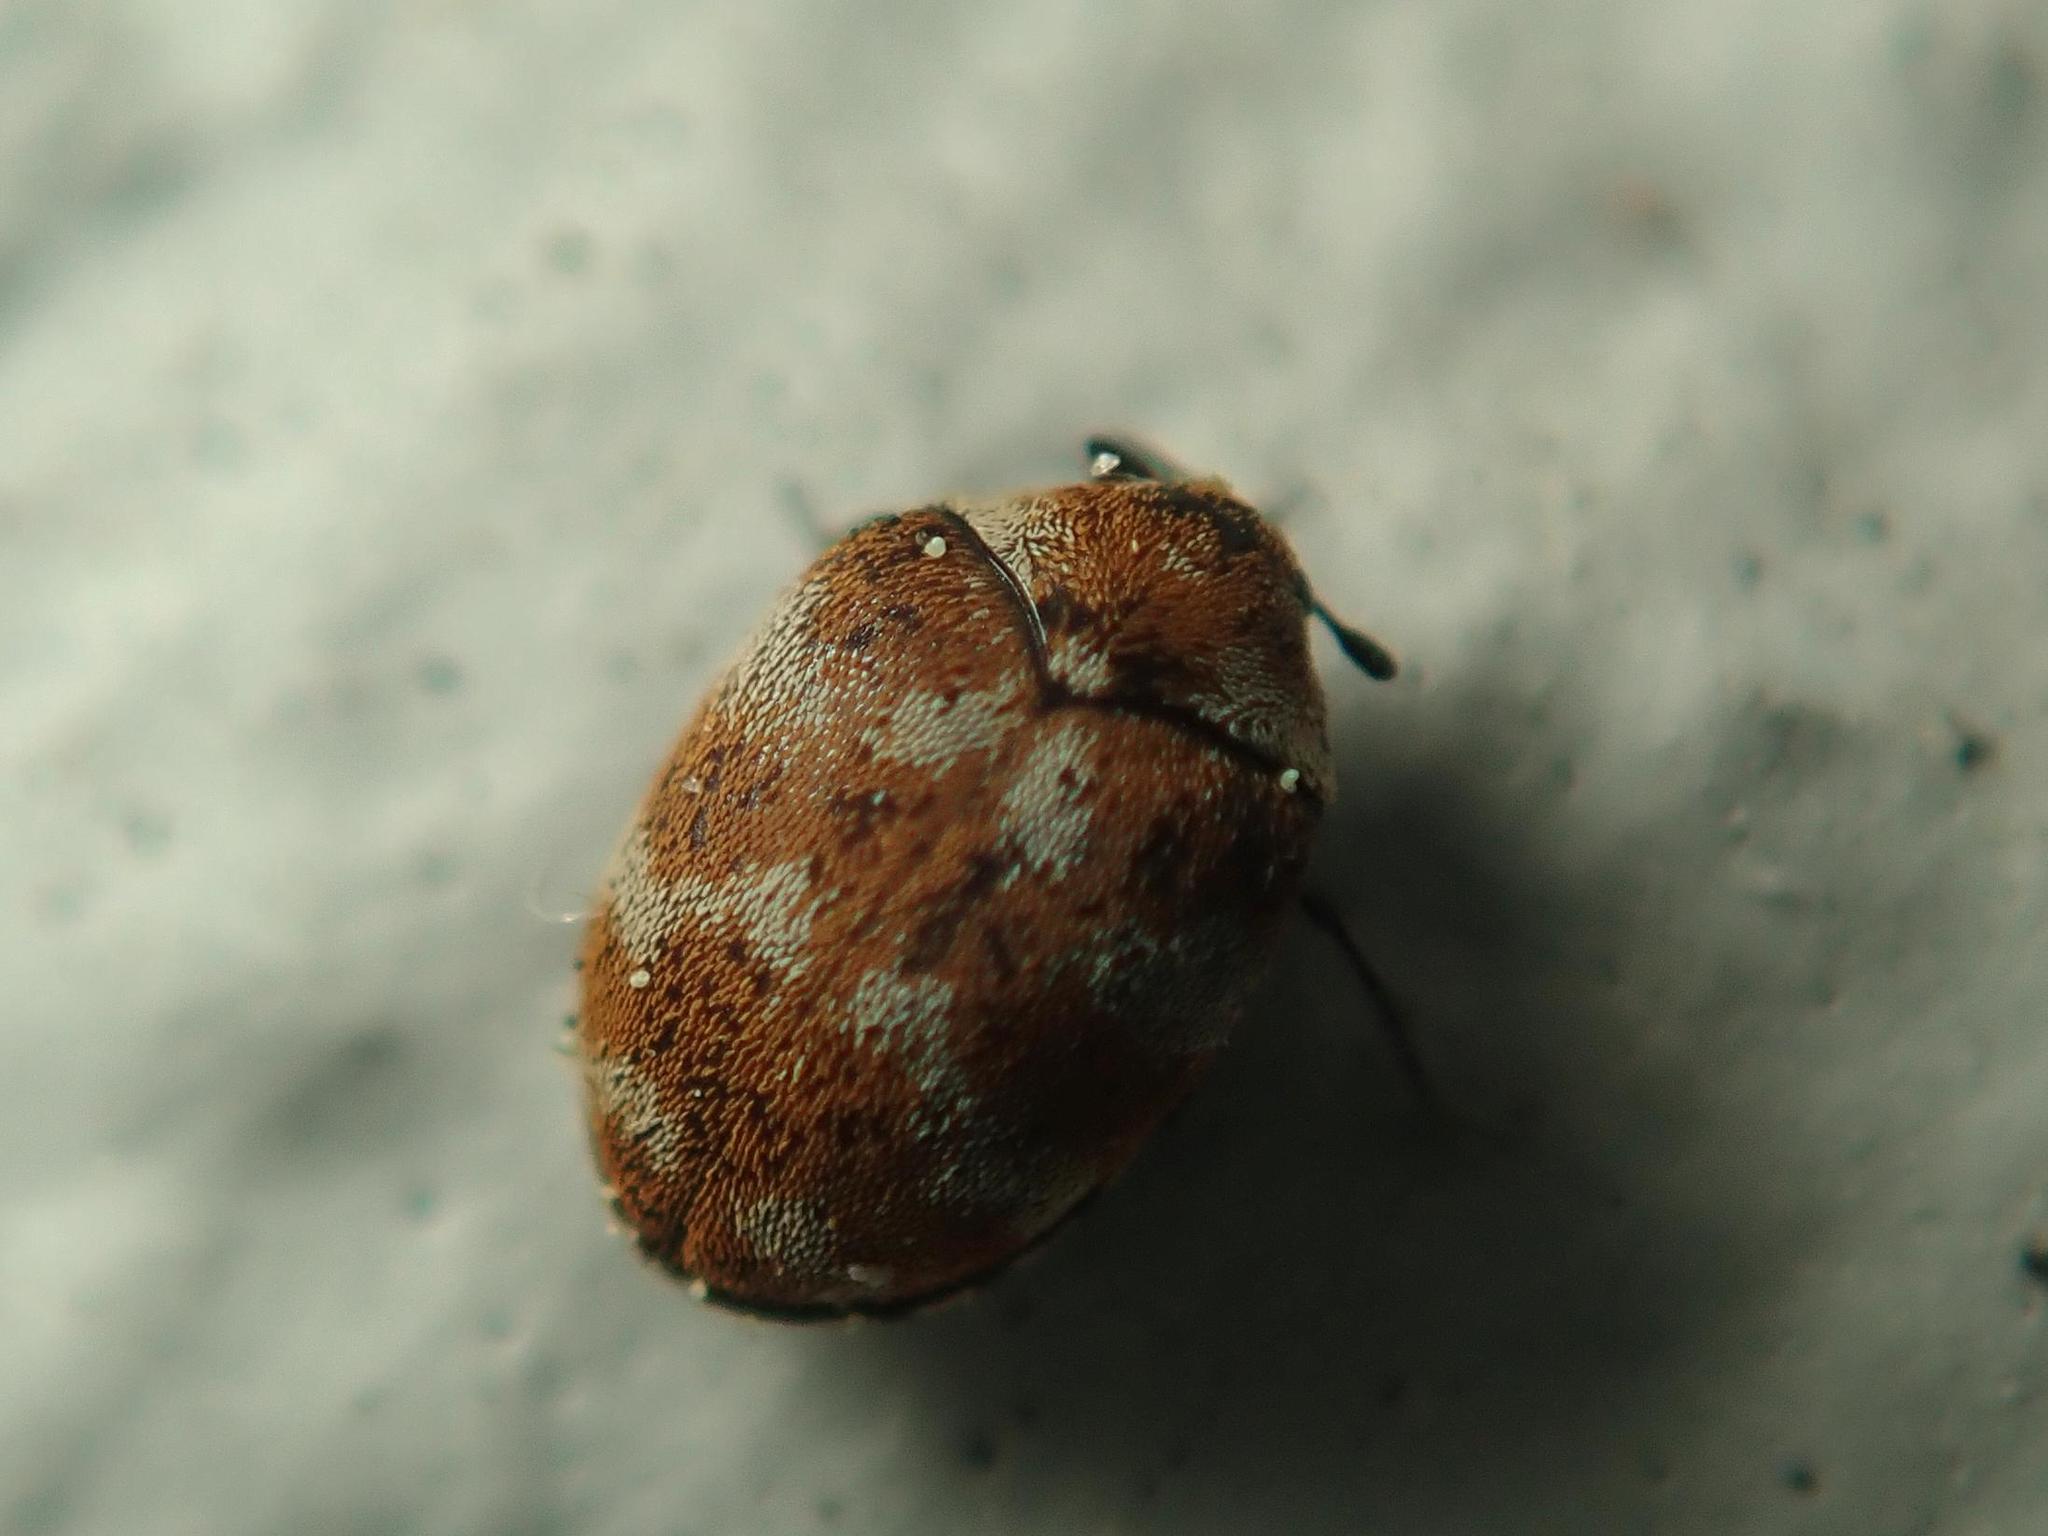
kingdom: Animalia
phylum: Arthropoda
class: Insecta
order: Coleoptera
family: Dermestidae
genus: Anthrenus
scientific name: Anthrenus verbasci
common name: Varied carpet beetle
